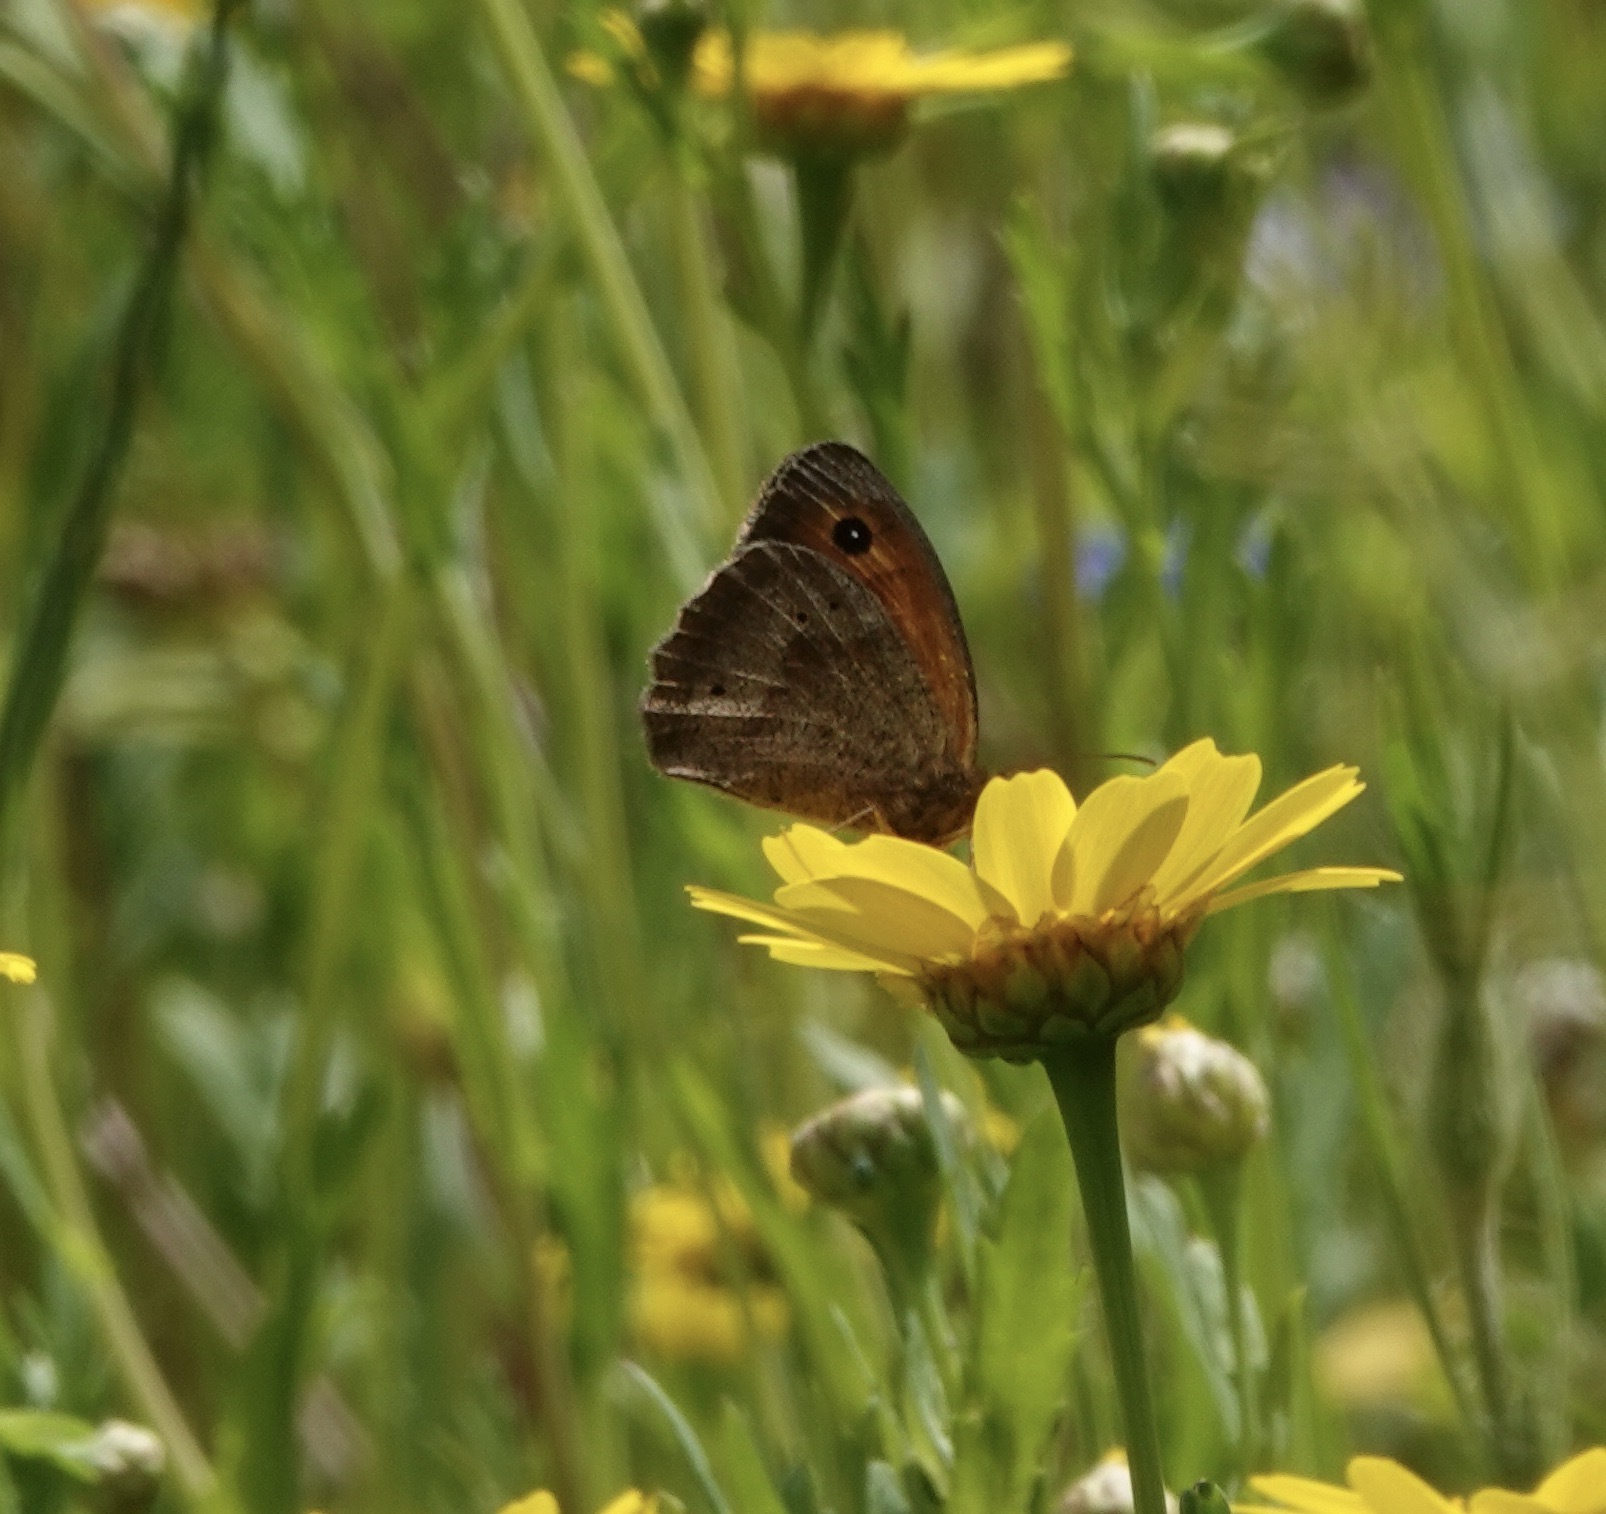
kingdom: Animalia
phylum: Arthropoda
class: Insecta
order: Lepidoptera
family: Nymphalidae
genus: Maniola
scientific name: Maniola jurtina
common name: Meadow brown
